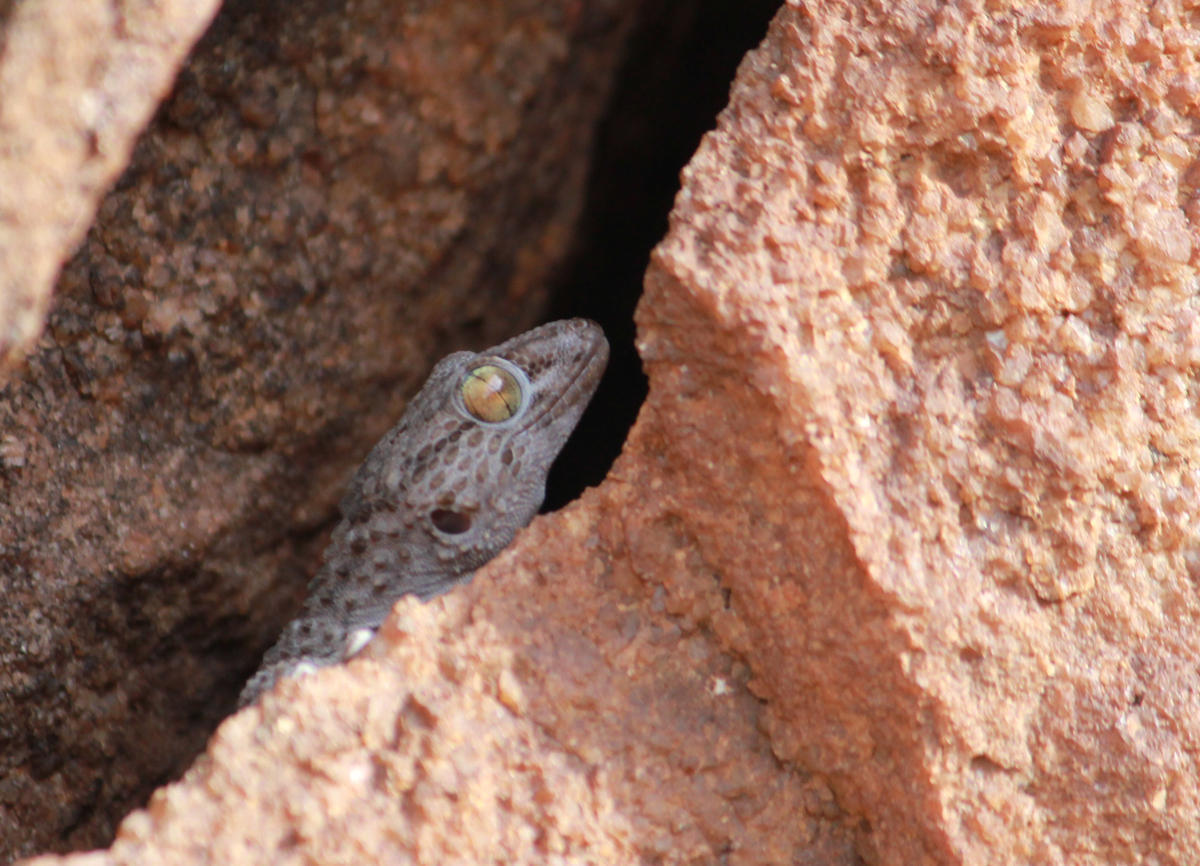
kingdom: Animalia
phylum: Chordata
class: Squamata
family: Gekkonidae
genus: Chondrodactylus
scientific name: Chondrodactylus turneri
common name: Turner’s gecko
